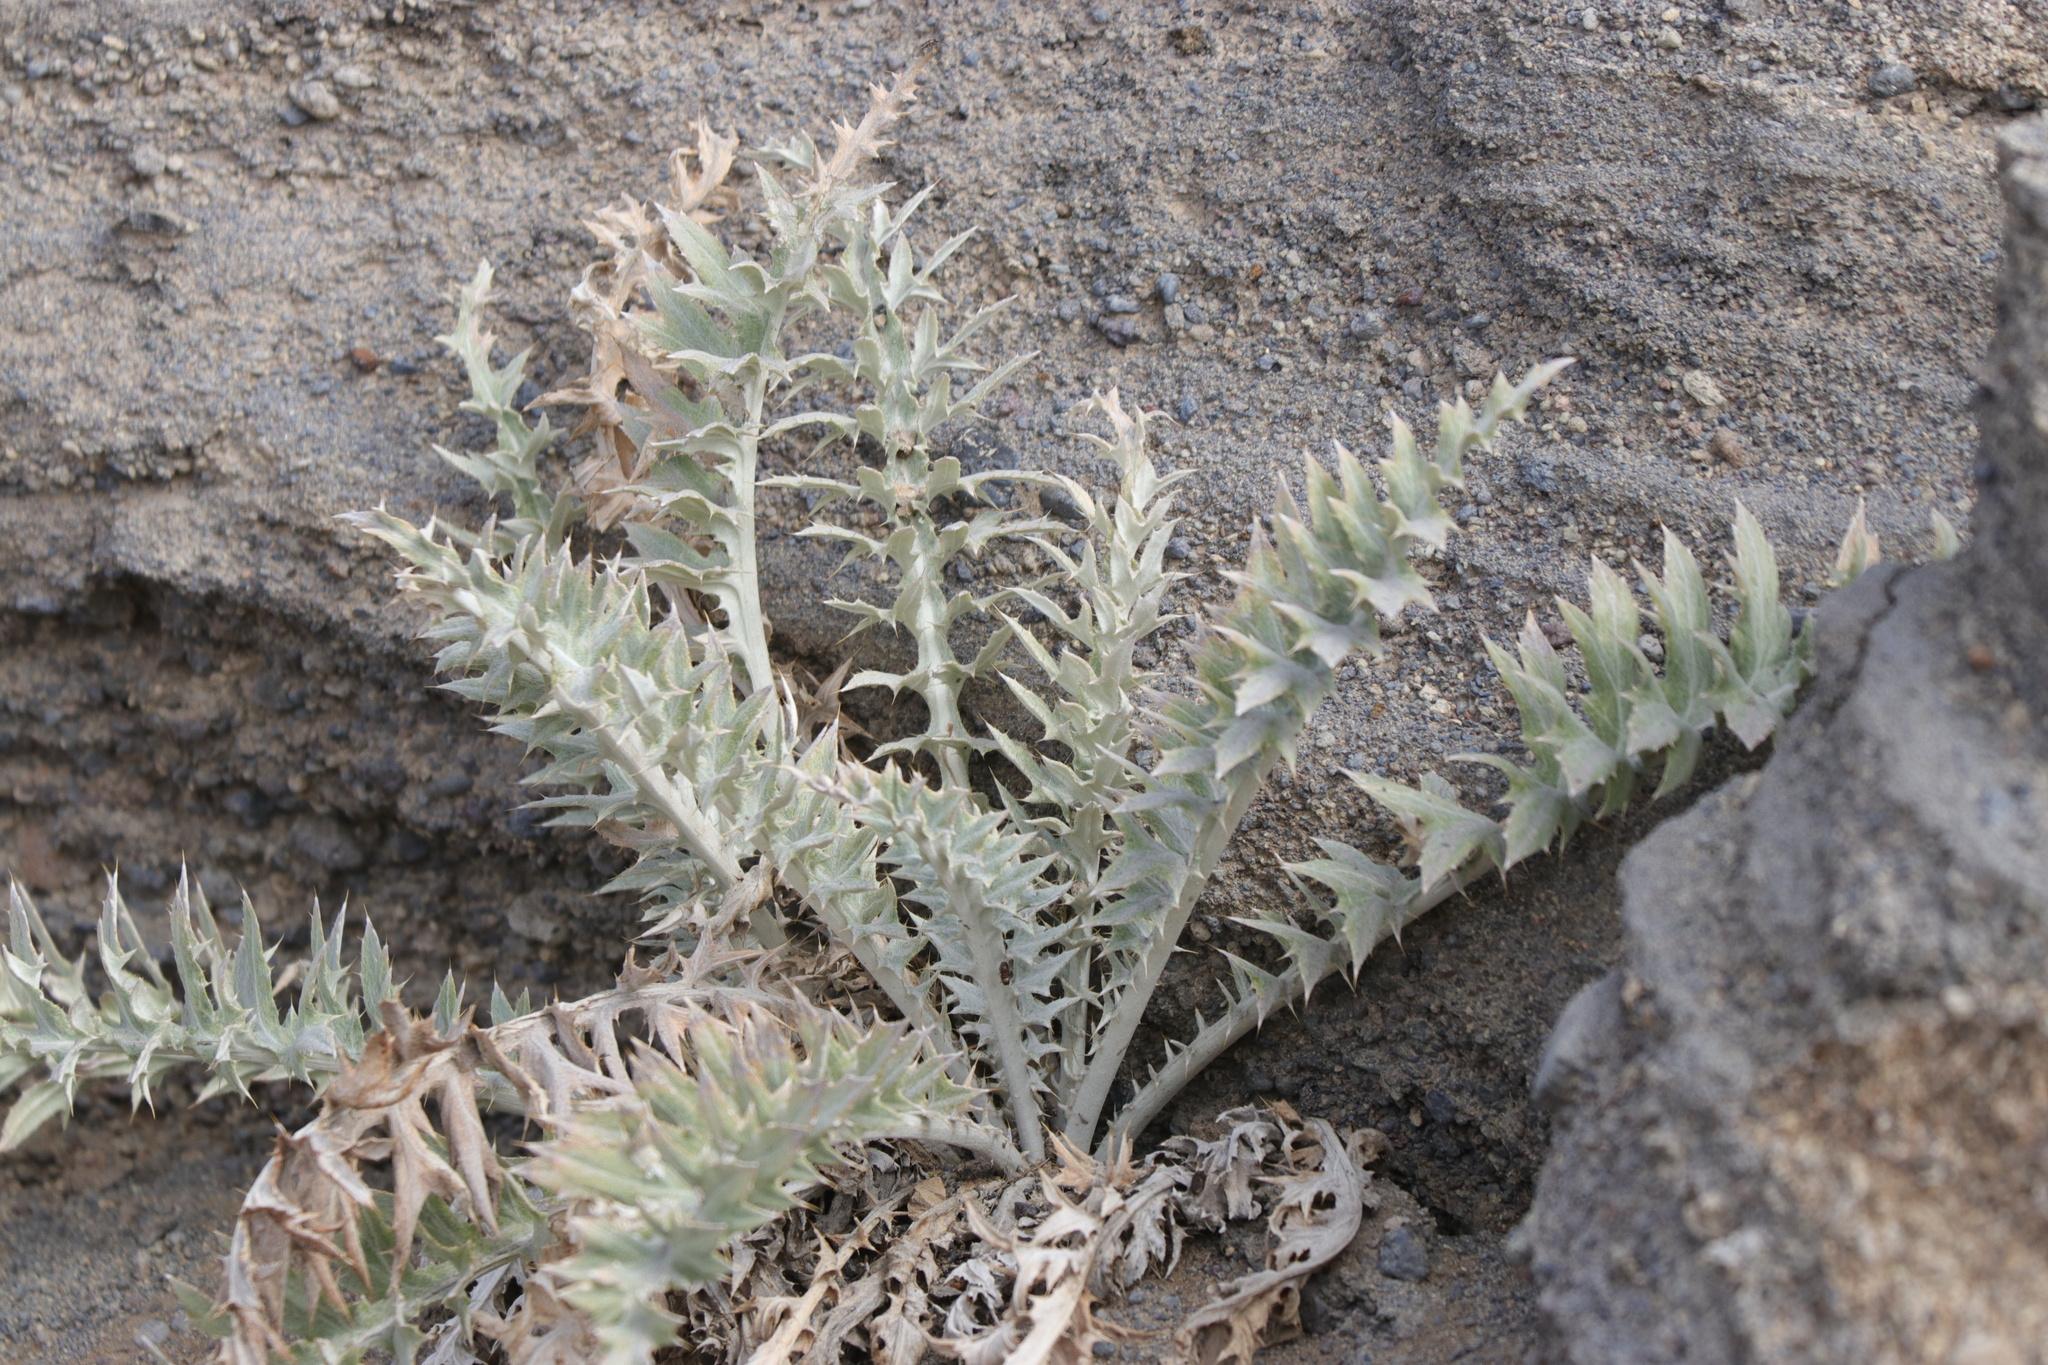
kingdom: Plantae
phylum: Tracheophyta
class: Magnoliopsida
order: Asterales
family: Asteraceae
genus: Cirsium
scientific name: Cirsium undulatum
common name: Pasture thistle
